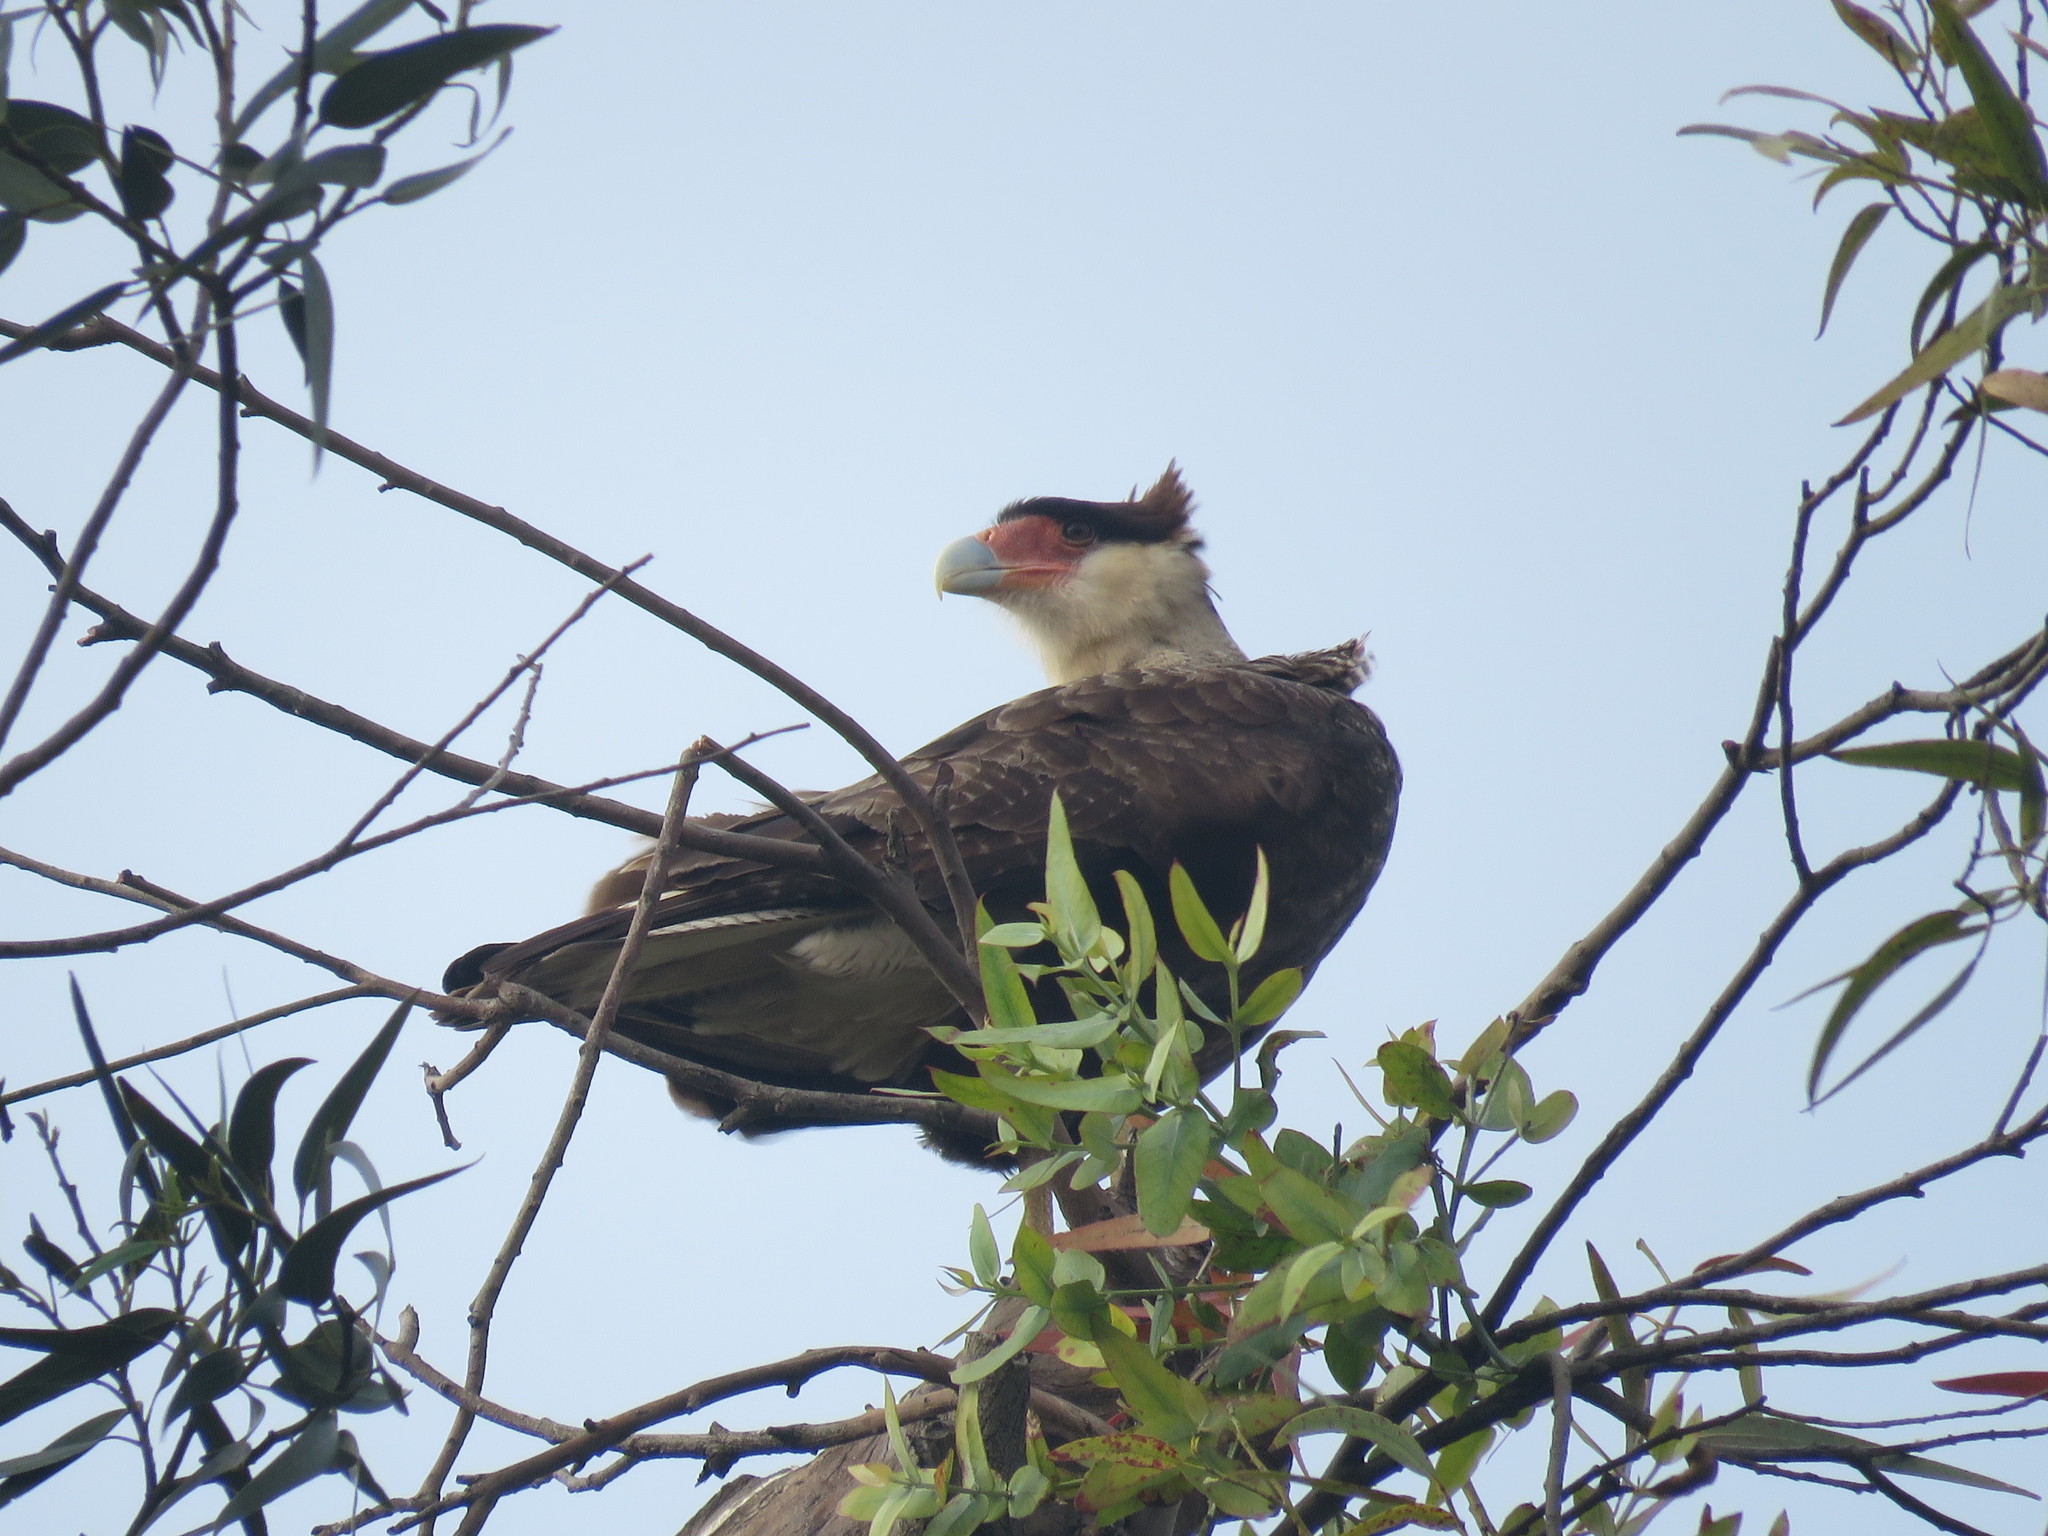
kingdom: Animalia
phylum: Chordata
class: Aves
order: Falconiformes
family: Falconidae
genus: Caracara
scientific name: Caracara plancus
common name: Southern caracara
